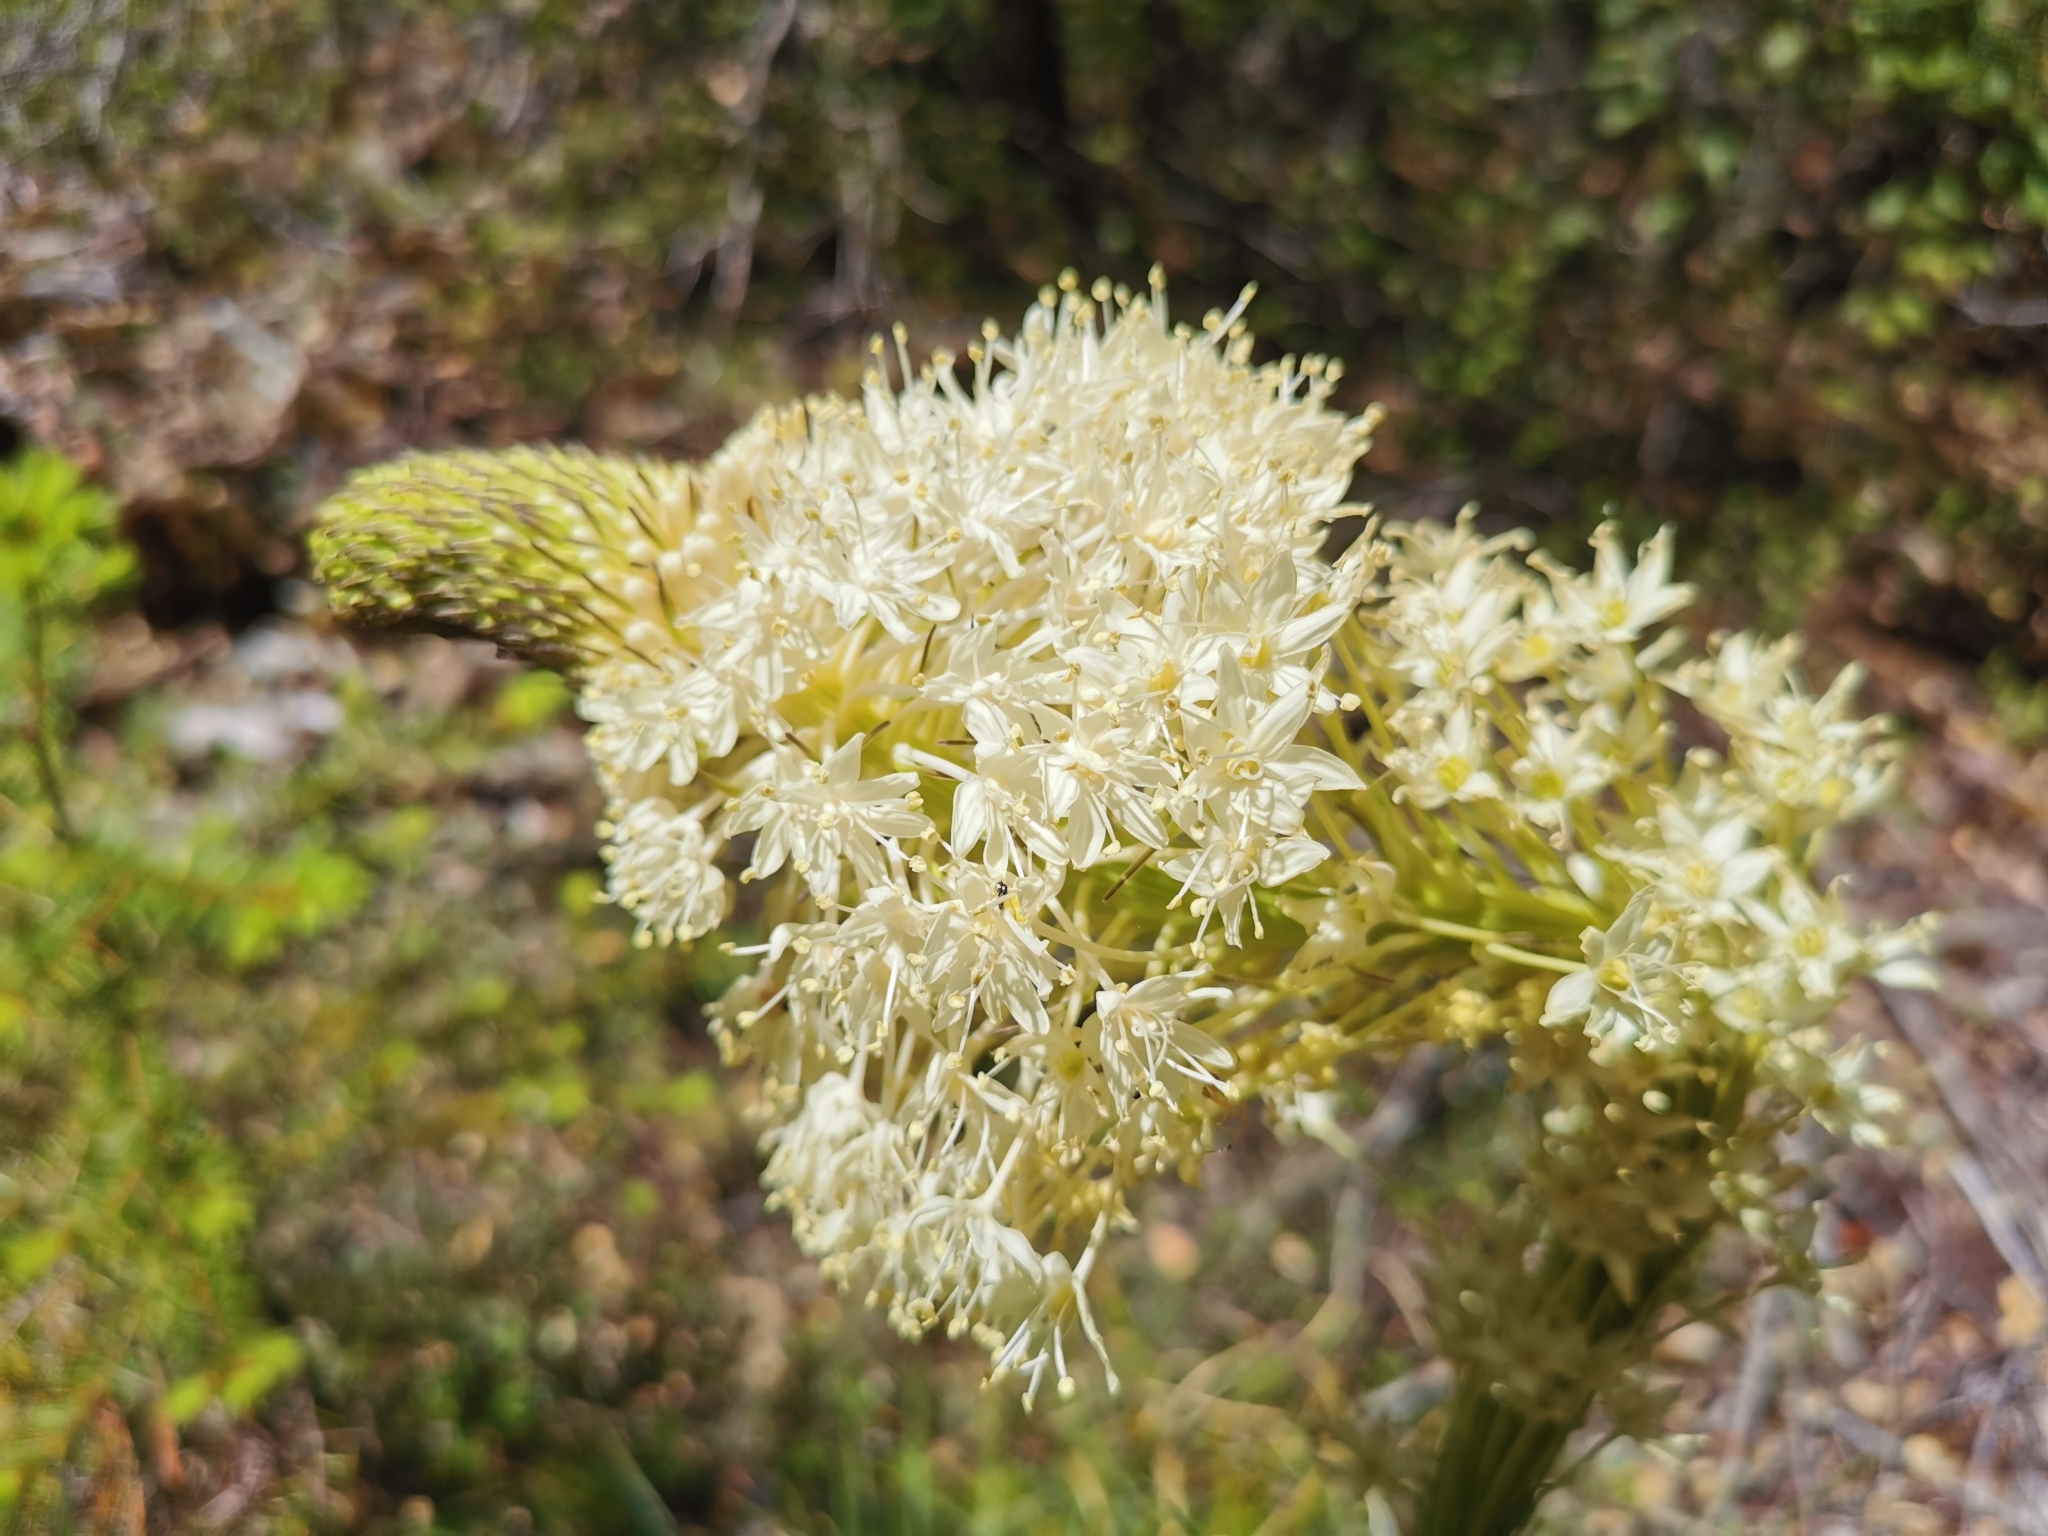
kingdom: Plantae
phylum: Tracheophyta
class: Liliopsida
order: Liliales
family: Melanthiaceae
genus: Xerophyllum
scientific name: Xerophyllum tenax
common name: Bear-grass
